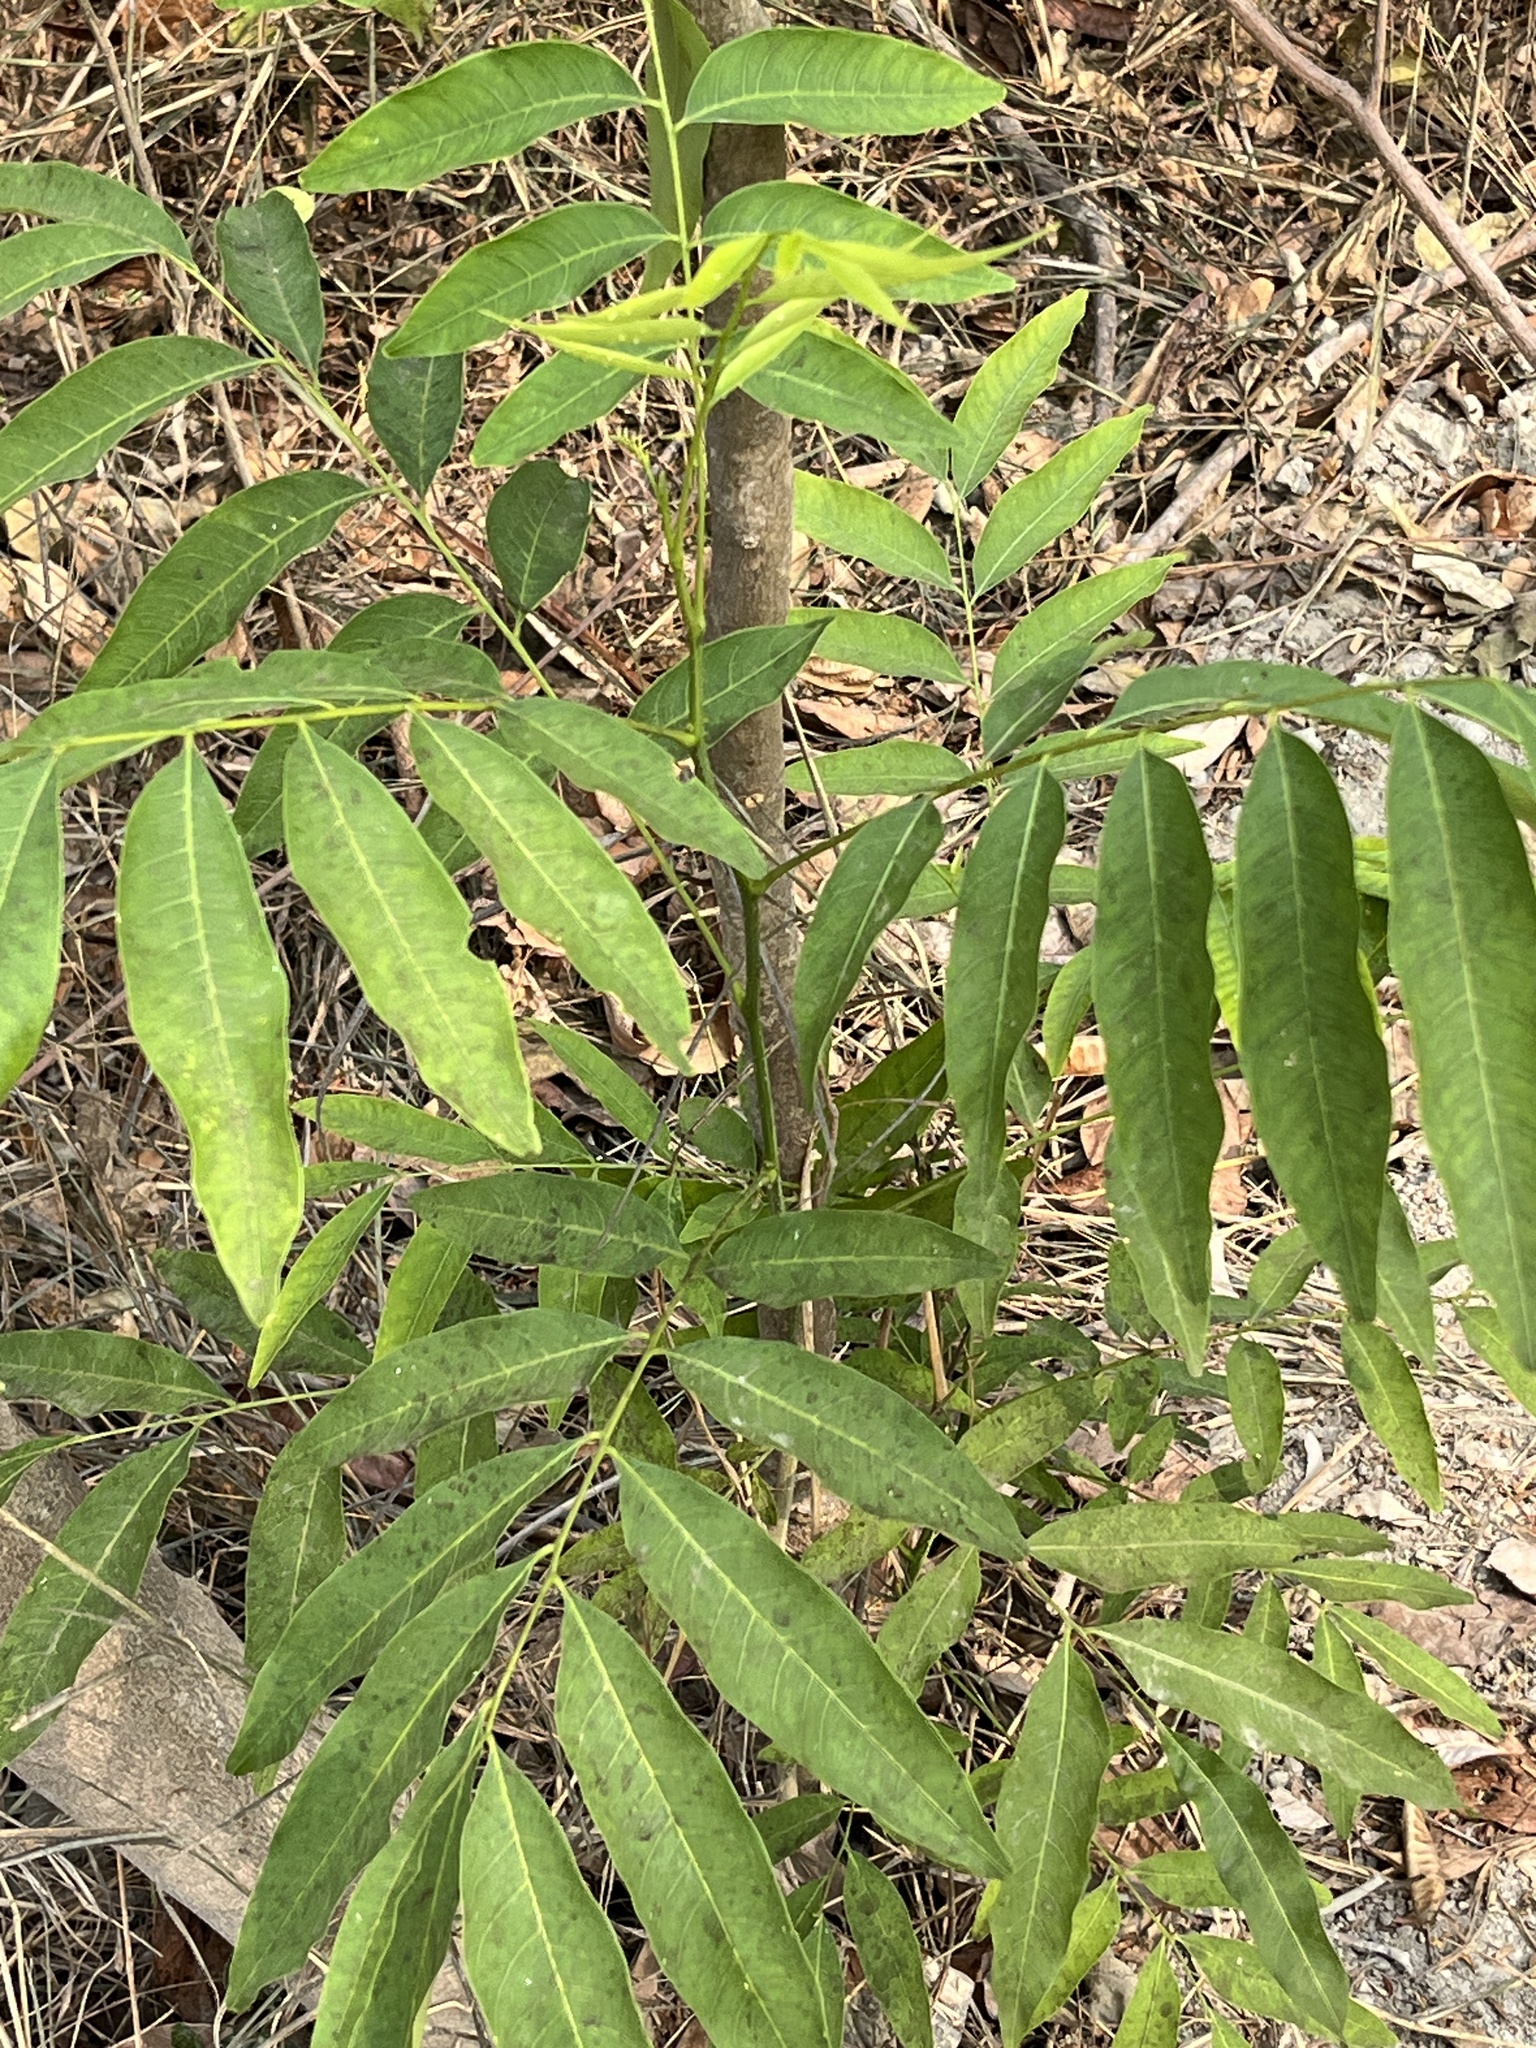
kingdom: Plantae
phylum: Tracheophyta
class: Magnoliopsida
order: Sapindales
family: Sapindaceae
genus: Sapindus
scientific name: Sapindus mukorossi
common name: Chinese soapberry
